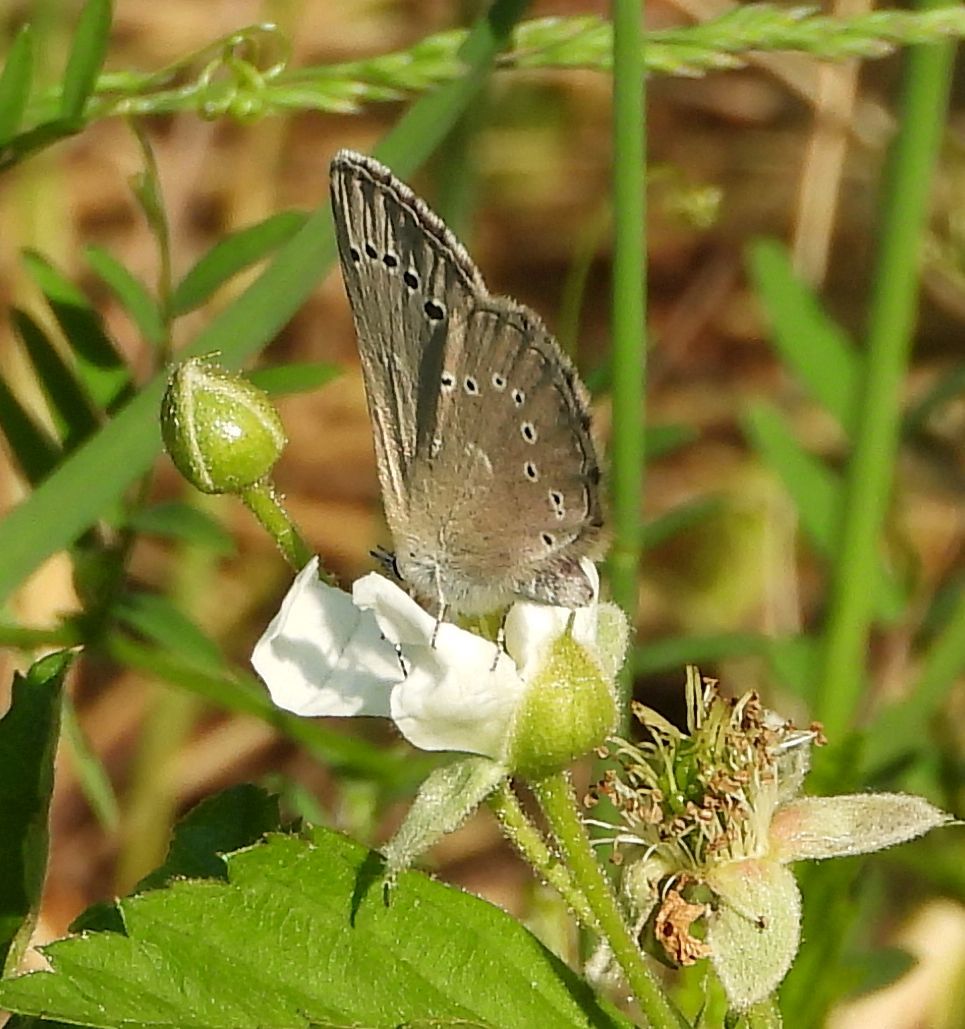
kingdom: Animalia
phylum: Arthropoda
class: Insecta
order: Lepidoptera
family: Lycaenidae
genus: Glaucopsyche
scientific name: Glaucopsyche lygdamus
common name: Silvery blue
